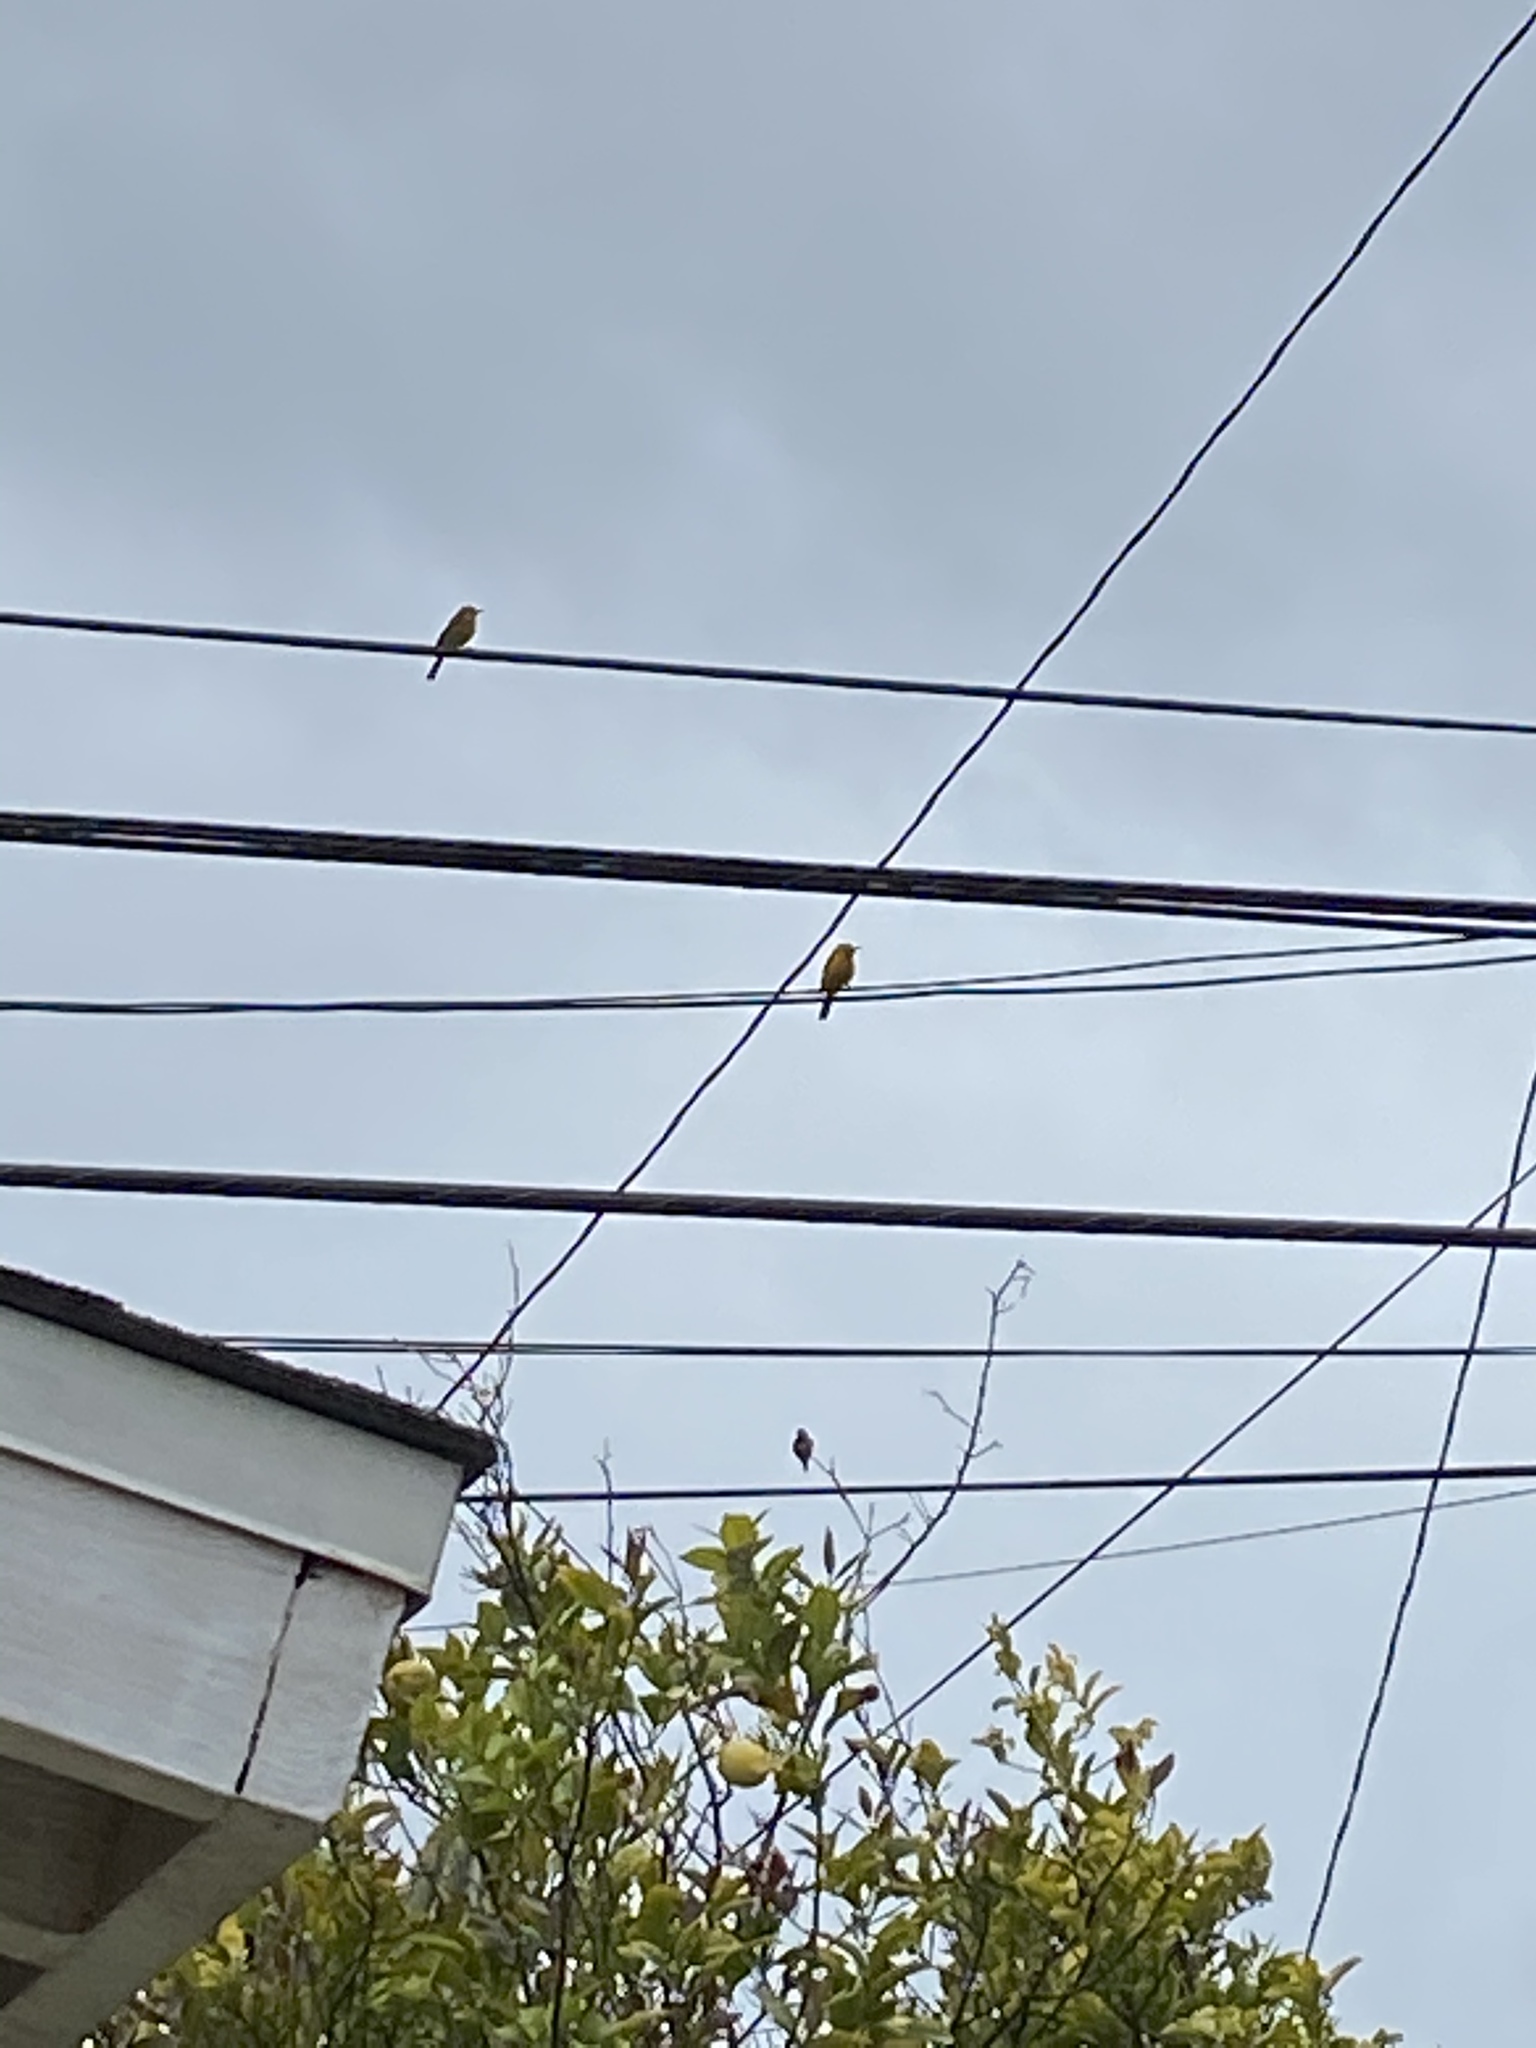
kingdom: Animalia
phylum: Chordata
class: Aves
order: Passeriformes
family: Icteridae
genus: Icterus
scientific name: Icterus cucullatus
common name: Hooded oriole
